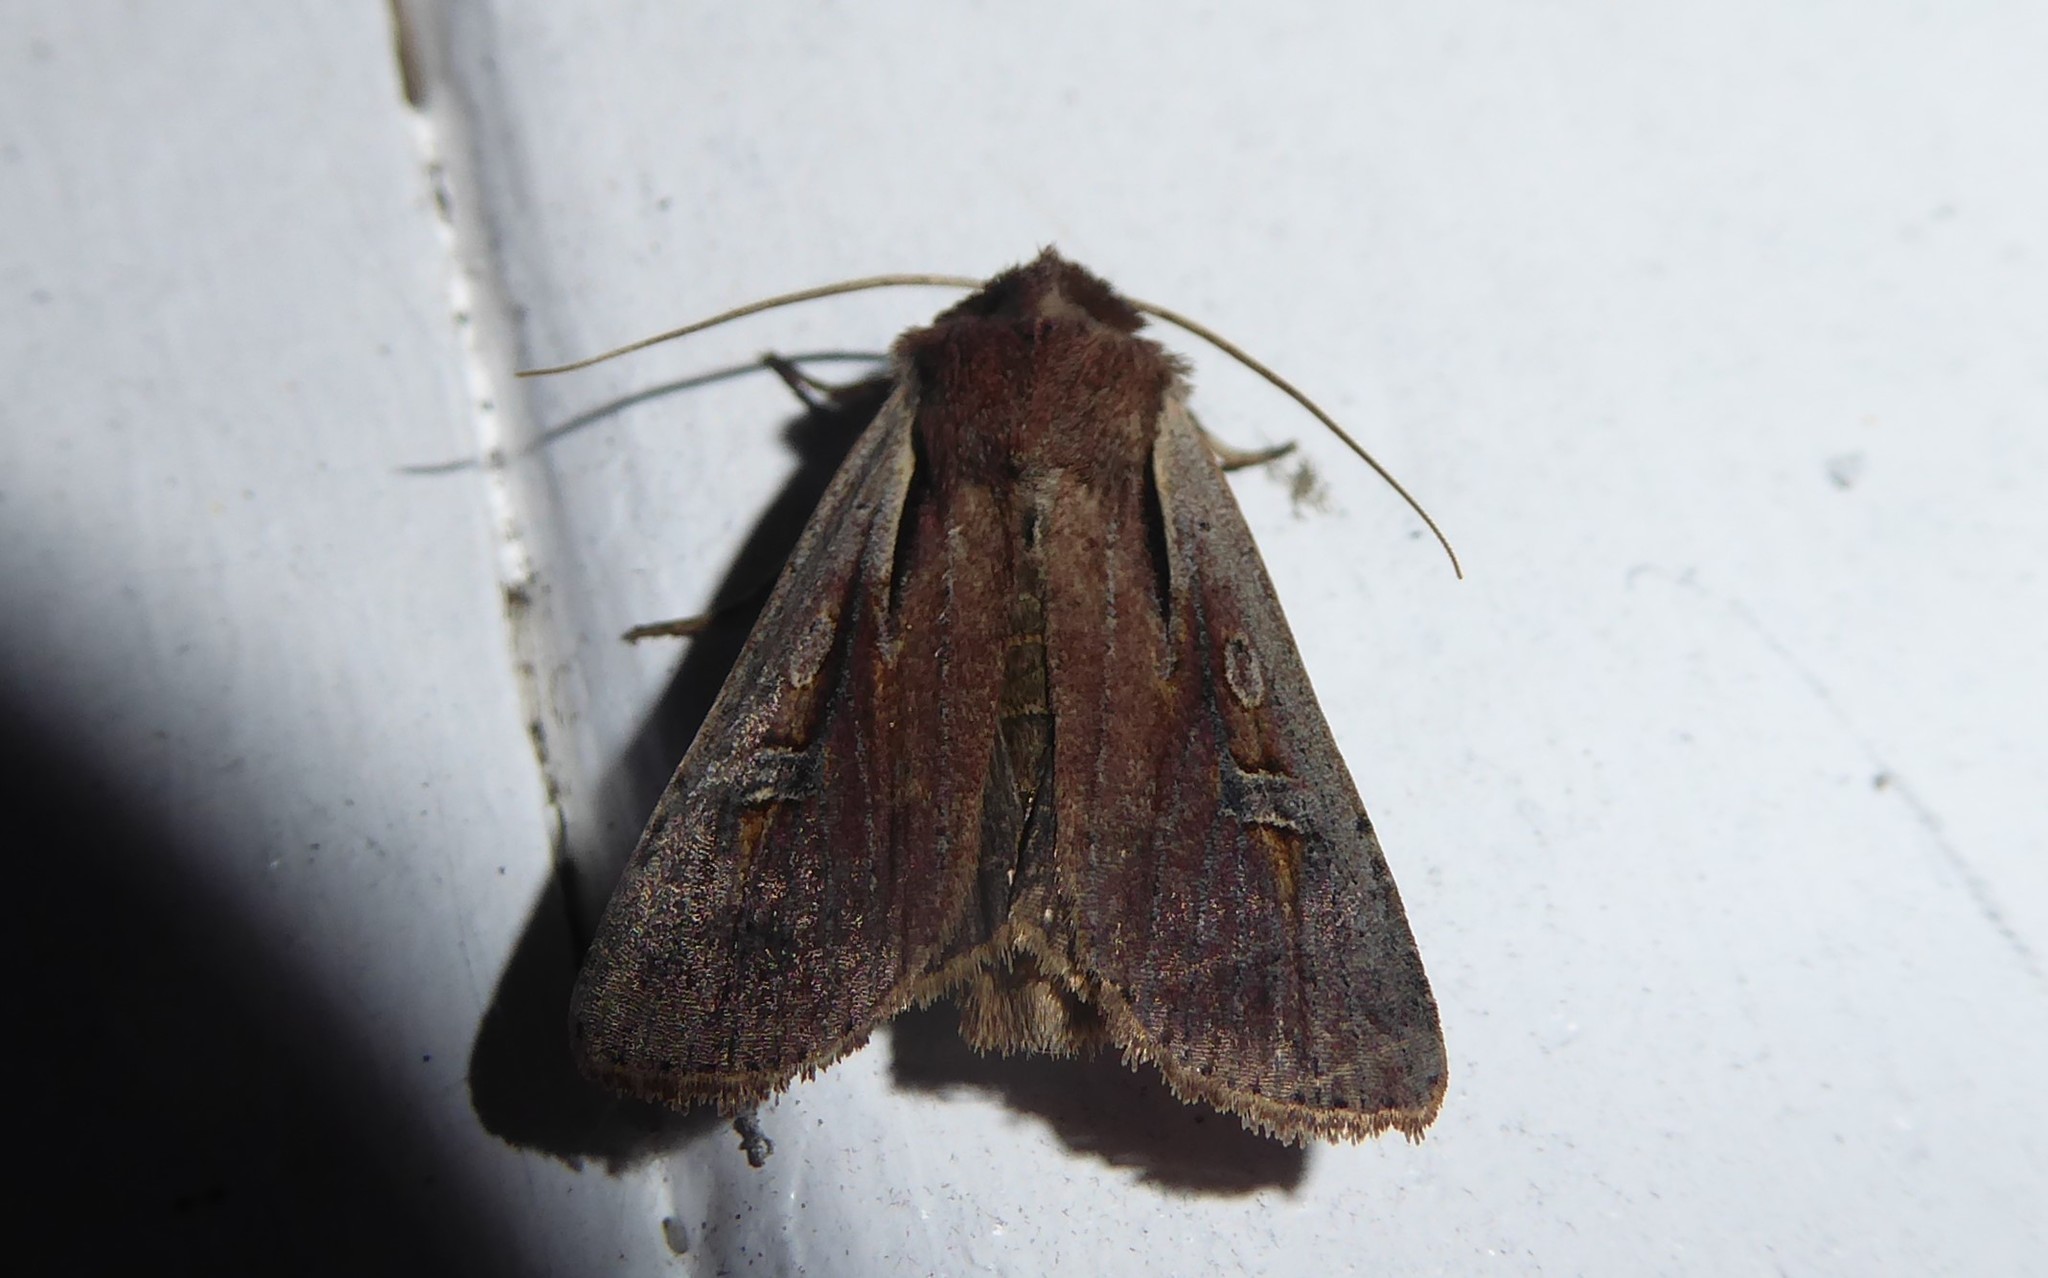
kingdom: Animalia
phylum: Arthropoda
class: Insecta
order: Lepidoptera
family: Noctuidae
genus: Ichneutica
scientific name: Ichneutica atristriga
